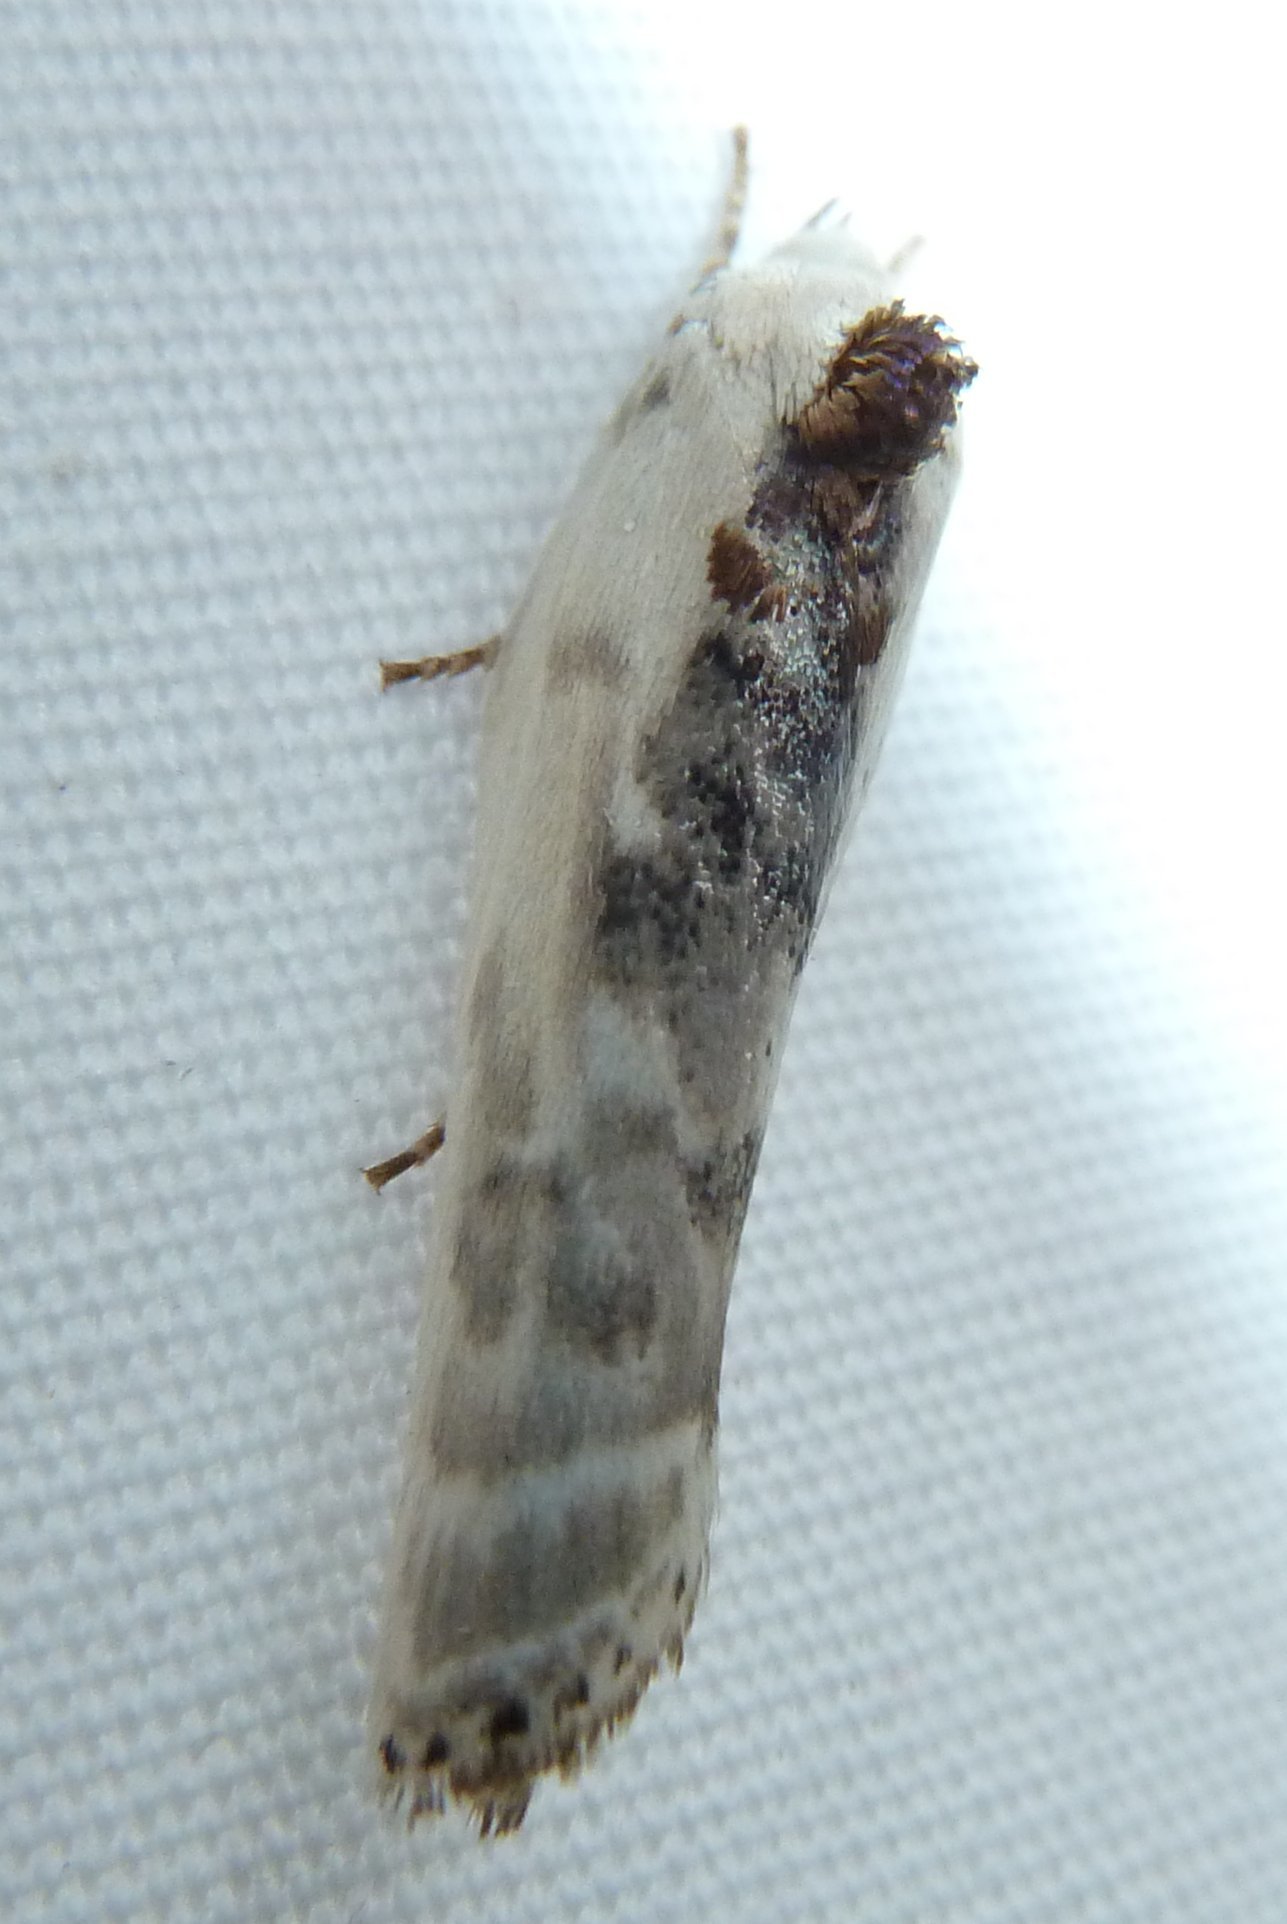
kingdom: Animalia
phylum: Arthropoda
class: Insecta
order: Lepidoptera
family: Depressariidae
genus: Antaeotricha
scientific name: Antaeotricha schlaegeri
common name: Schlaeger's fruitworm moth
